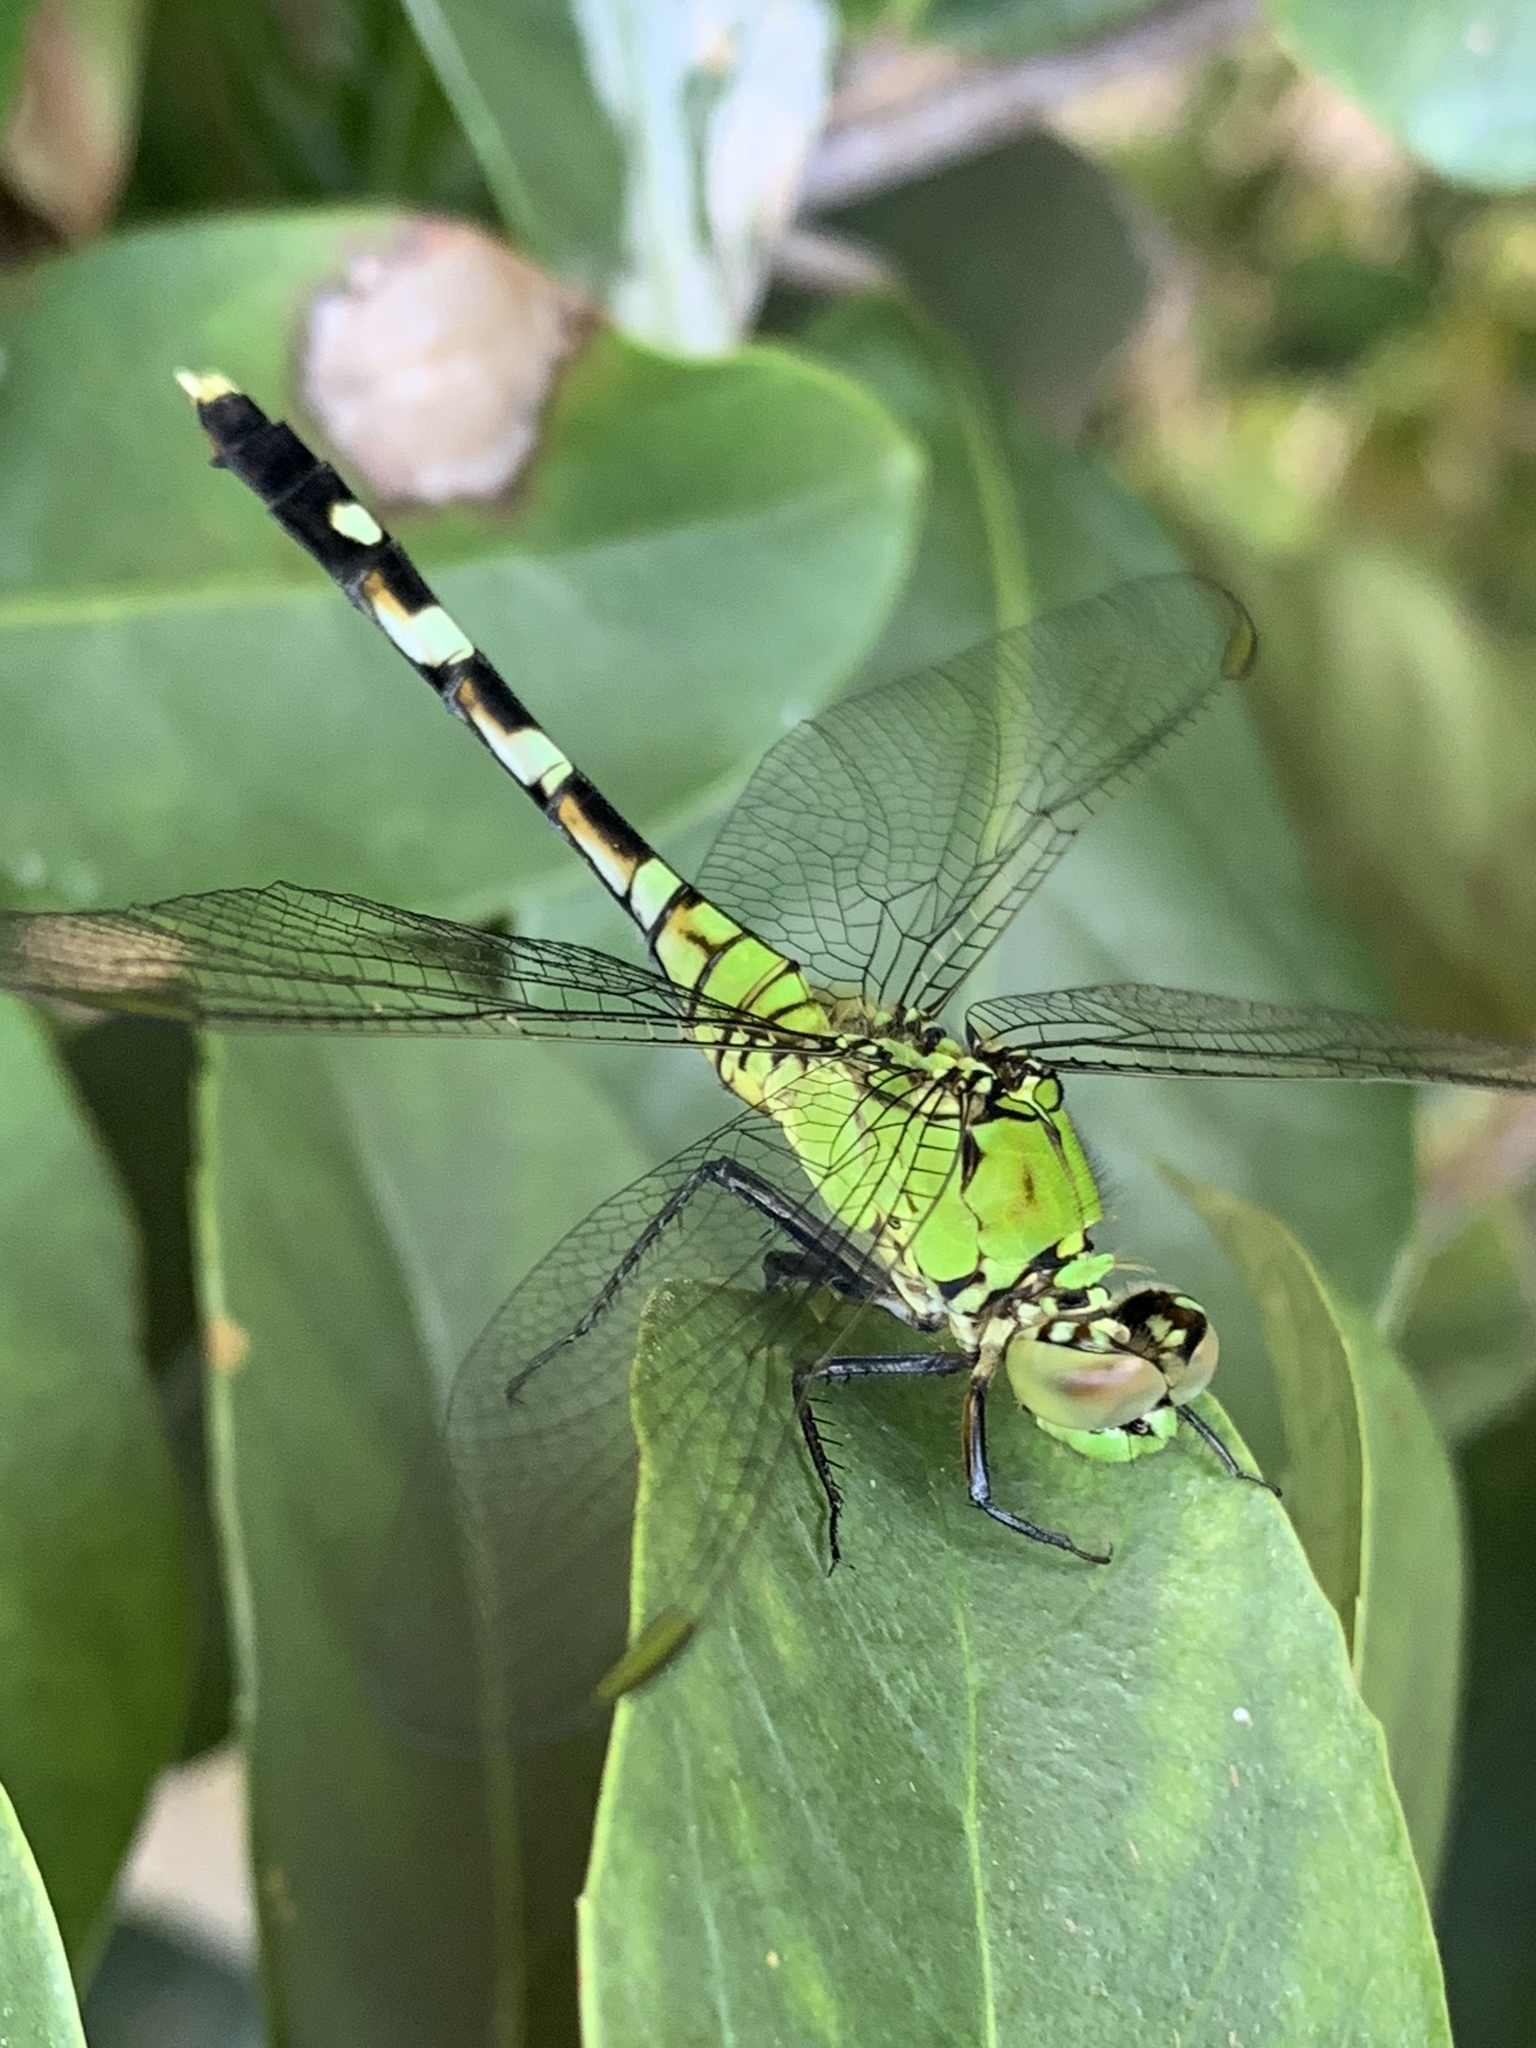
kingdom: Animalia
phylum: Arthropoda
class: Insecta
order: Odonata
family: Libellulidae
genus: Erythemis
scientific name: Erythemis simplicicollis
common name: Eastern pondhawk
